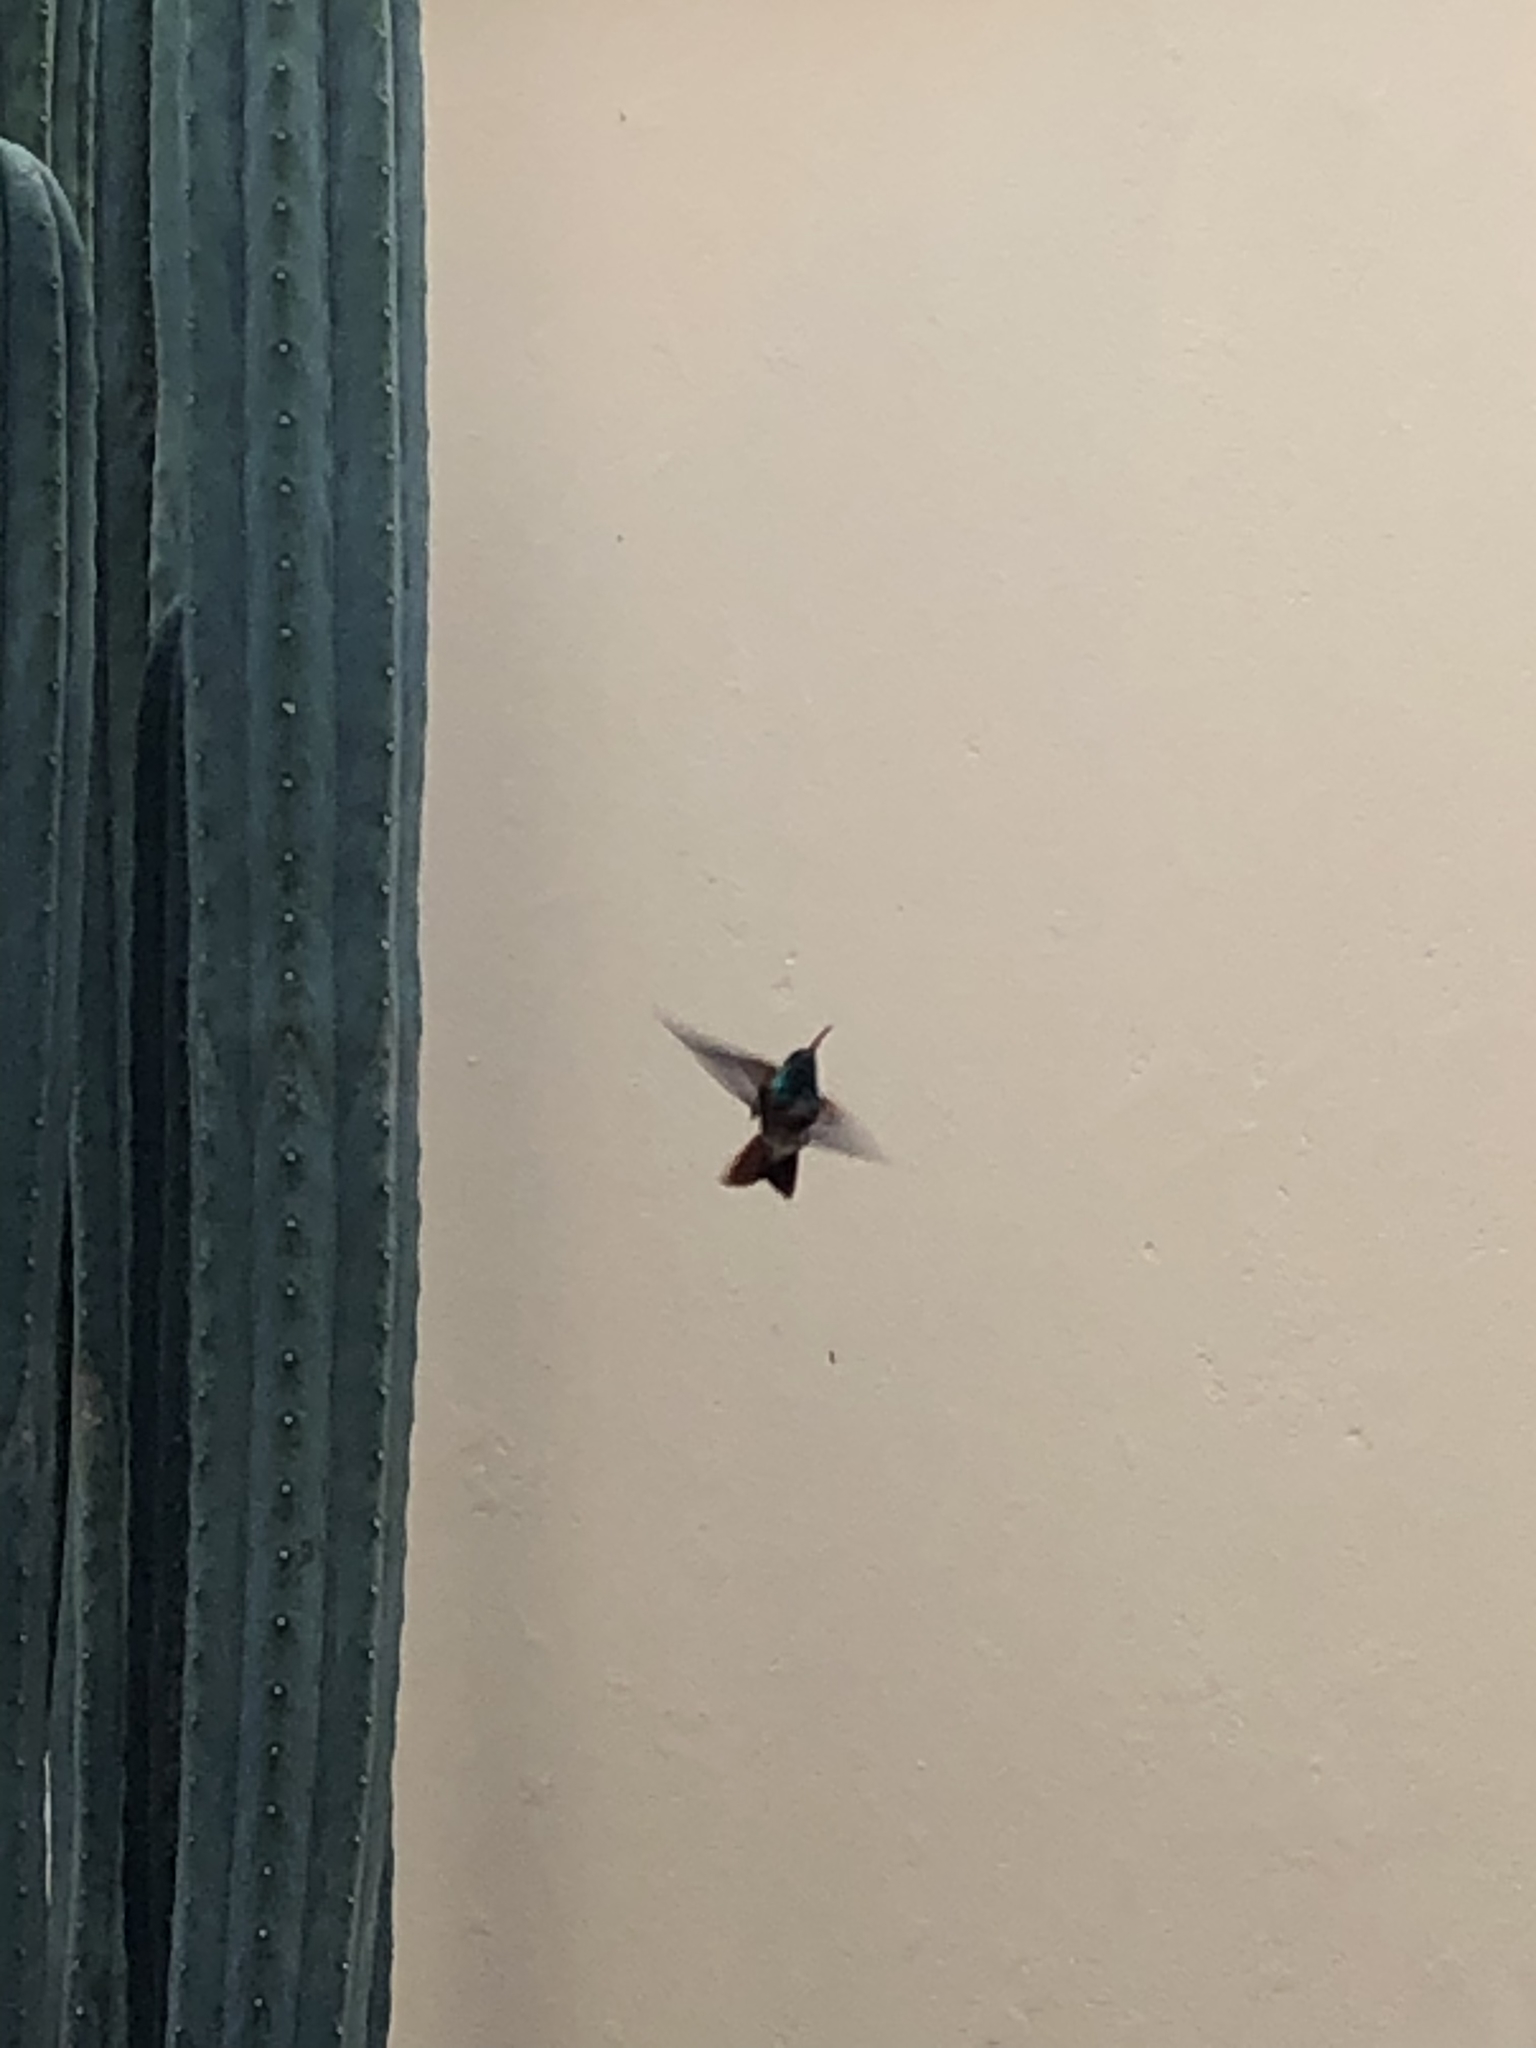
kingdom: Animalia
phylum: Chordata
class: Aves
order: Apodiformes
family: Trochilidae
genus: Amazilis
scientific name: Amazilis amazilia
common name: Amazilia hummingbird
